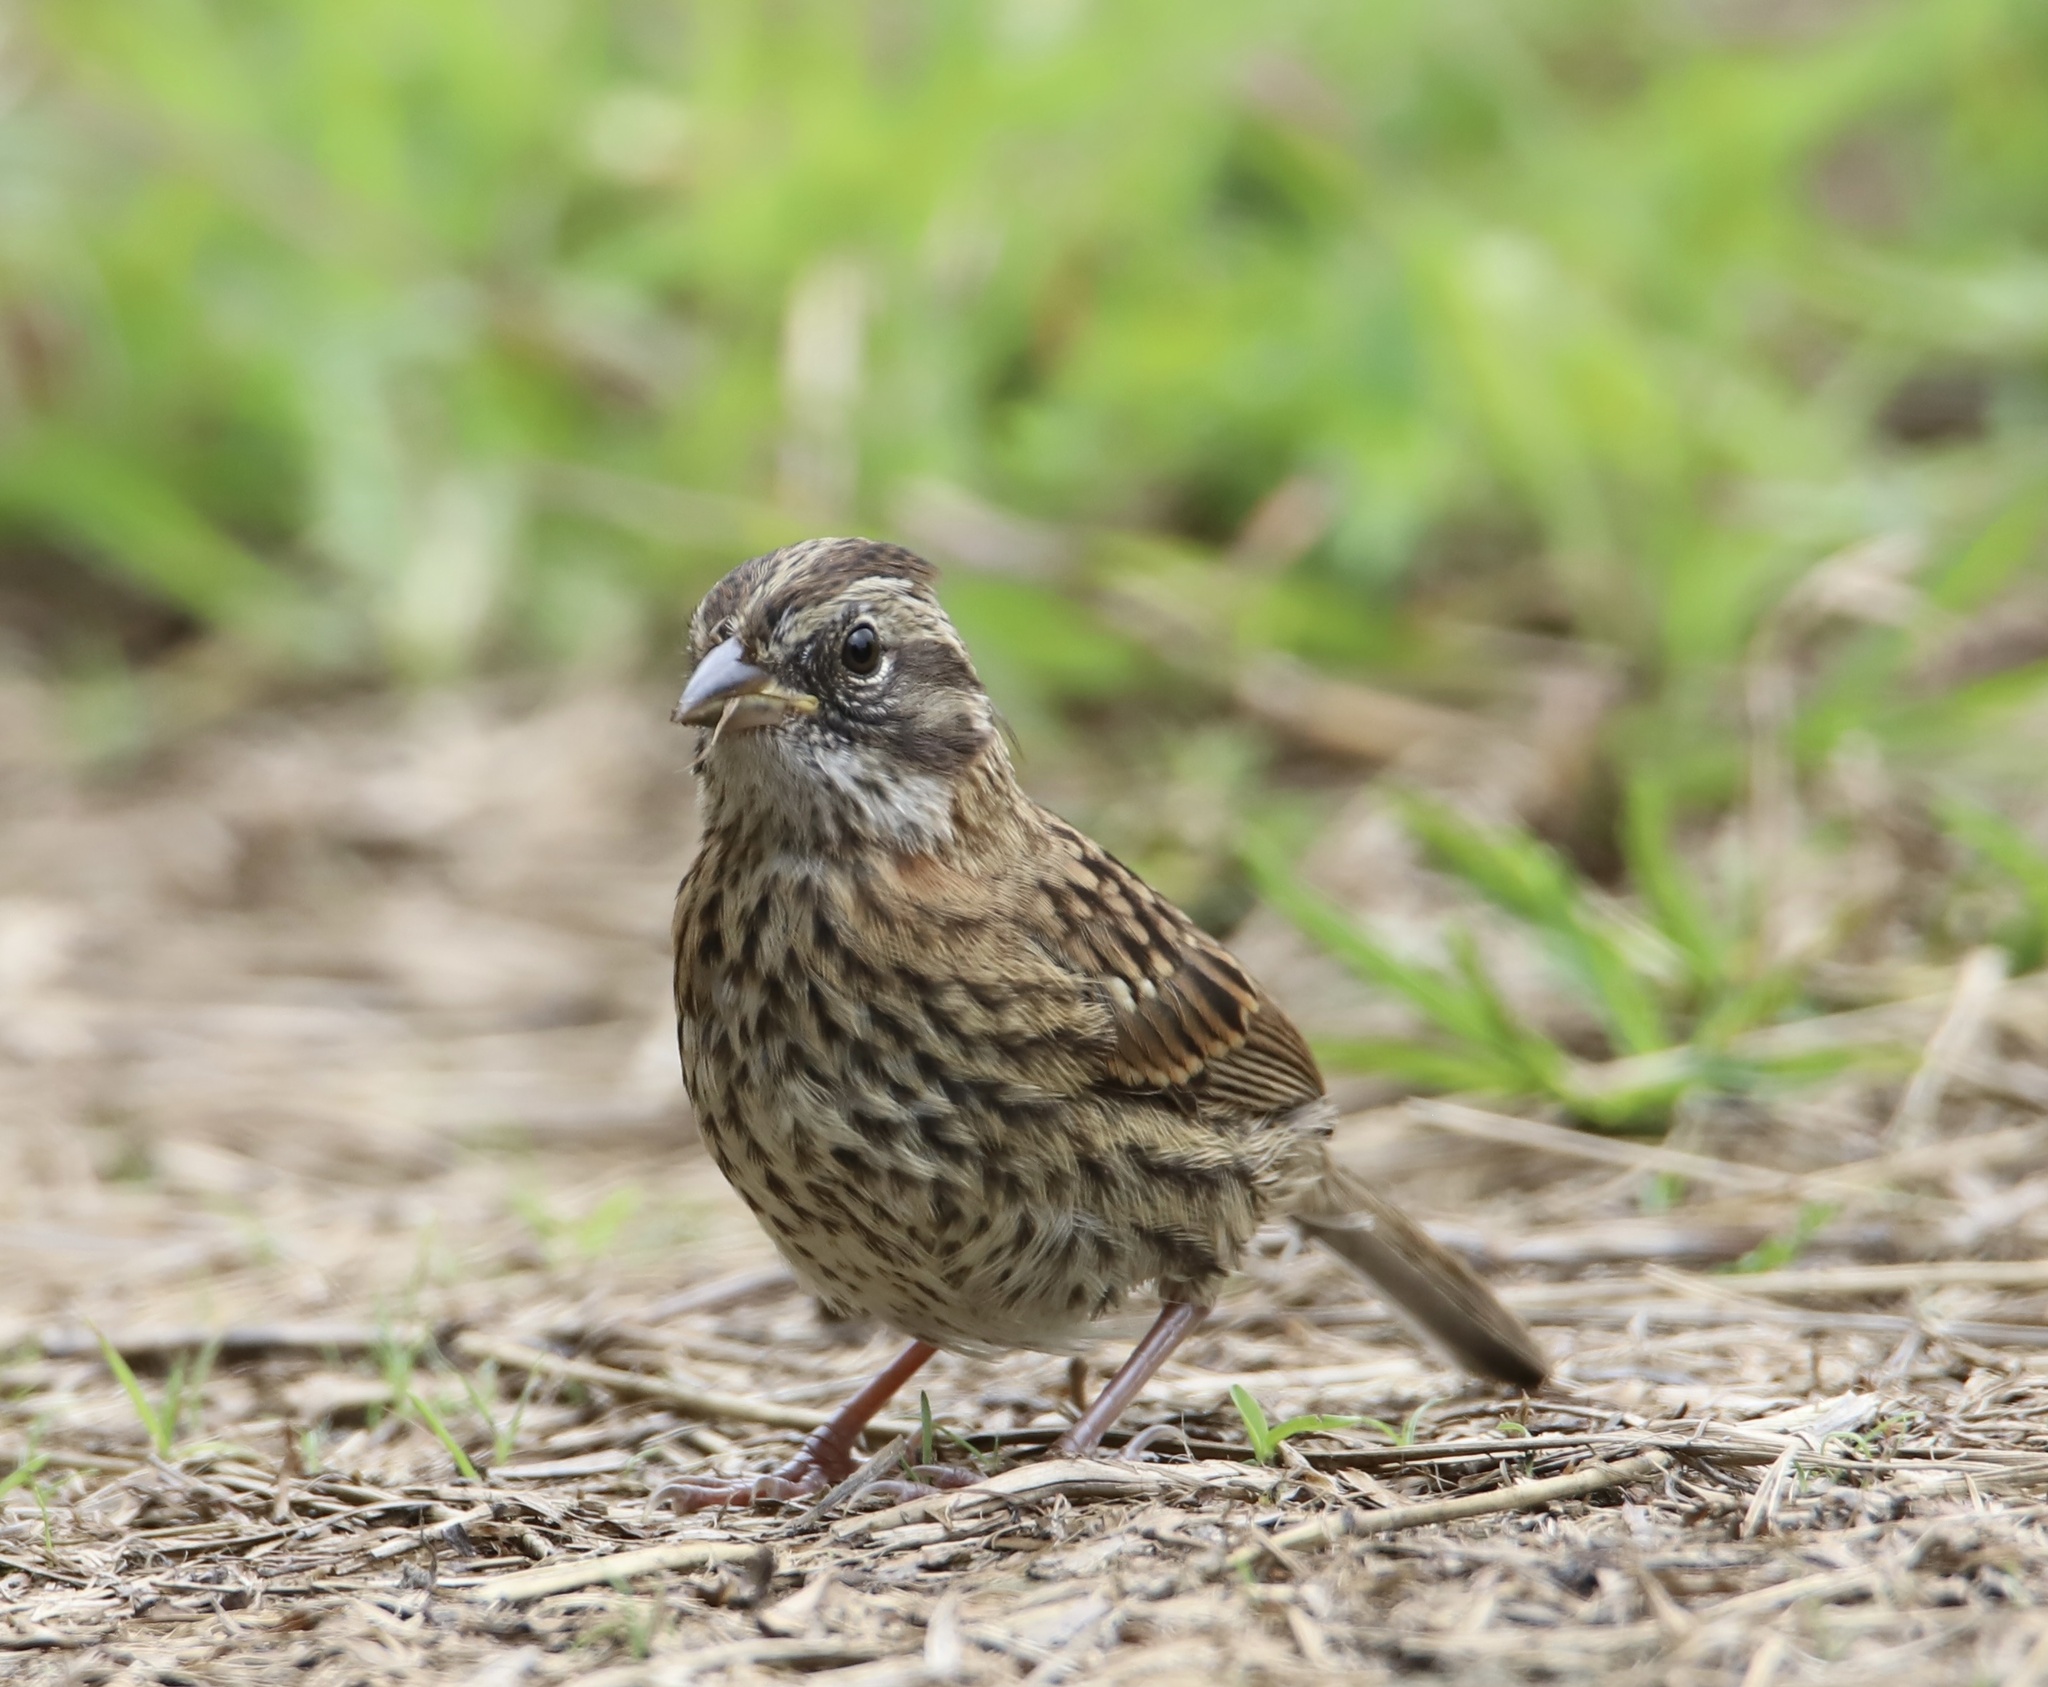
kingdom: Animalia
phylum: Chordata
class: Aves
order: Passeriformes
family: Passerellidae
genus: Zonotrichia
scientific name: Zonotrichia capensis
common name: Rufous-collared sparrow
